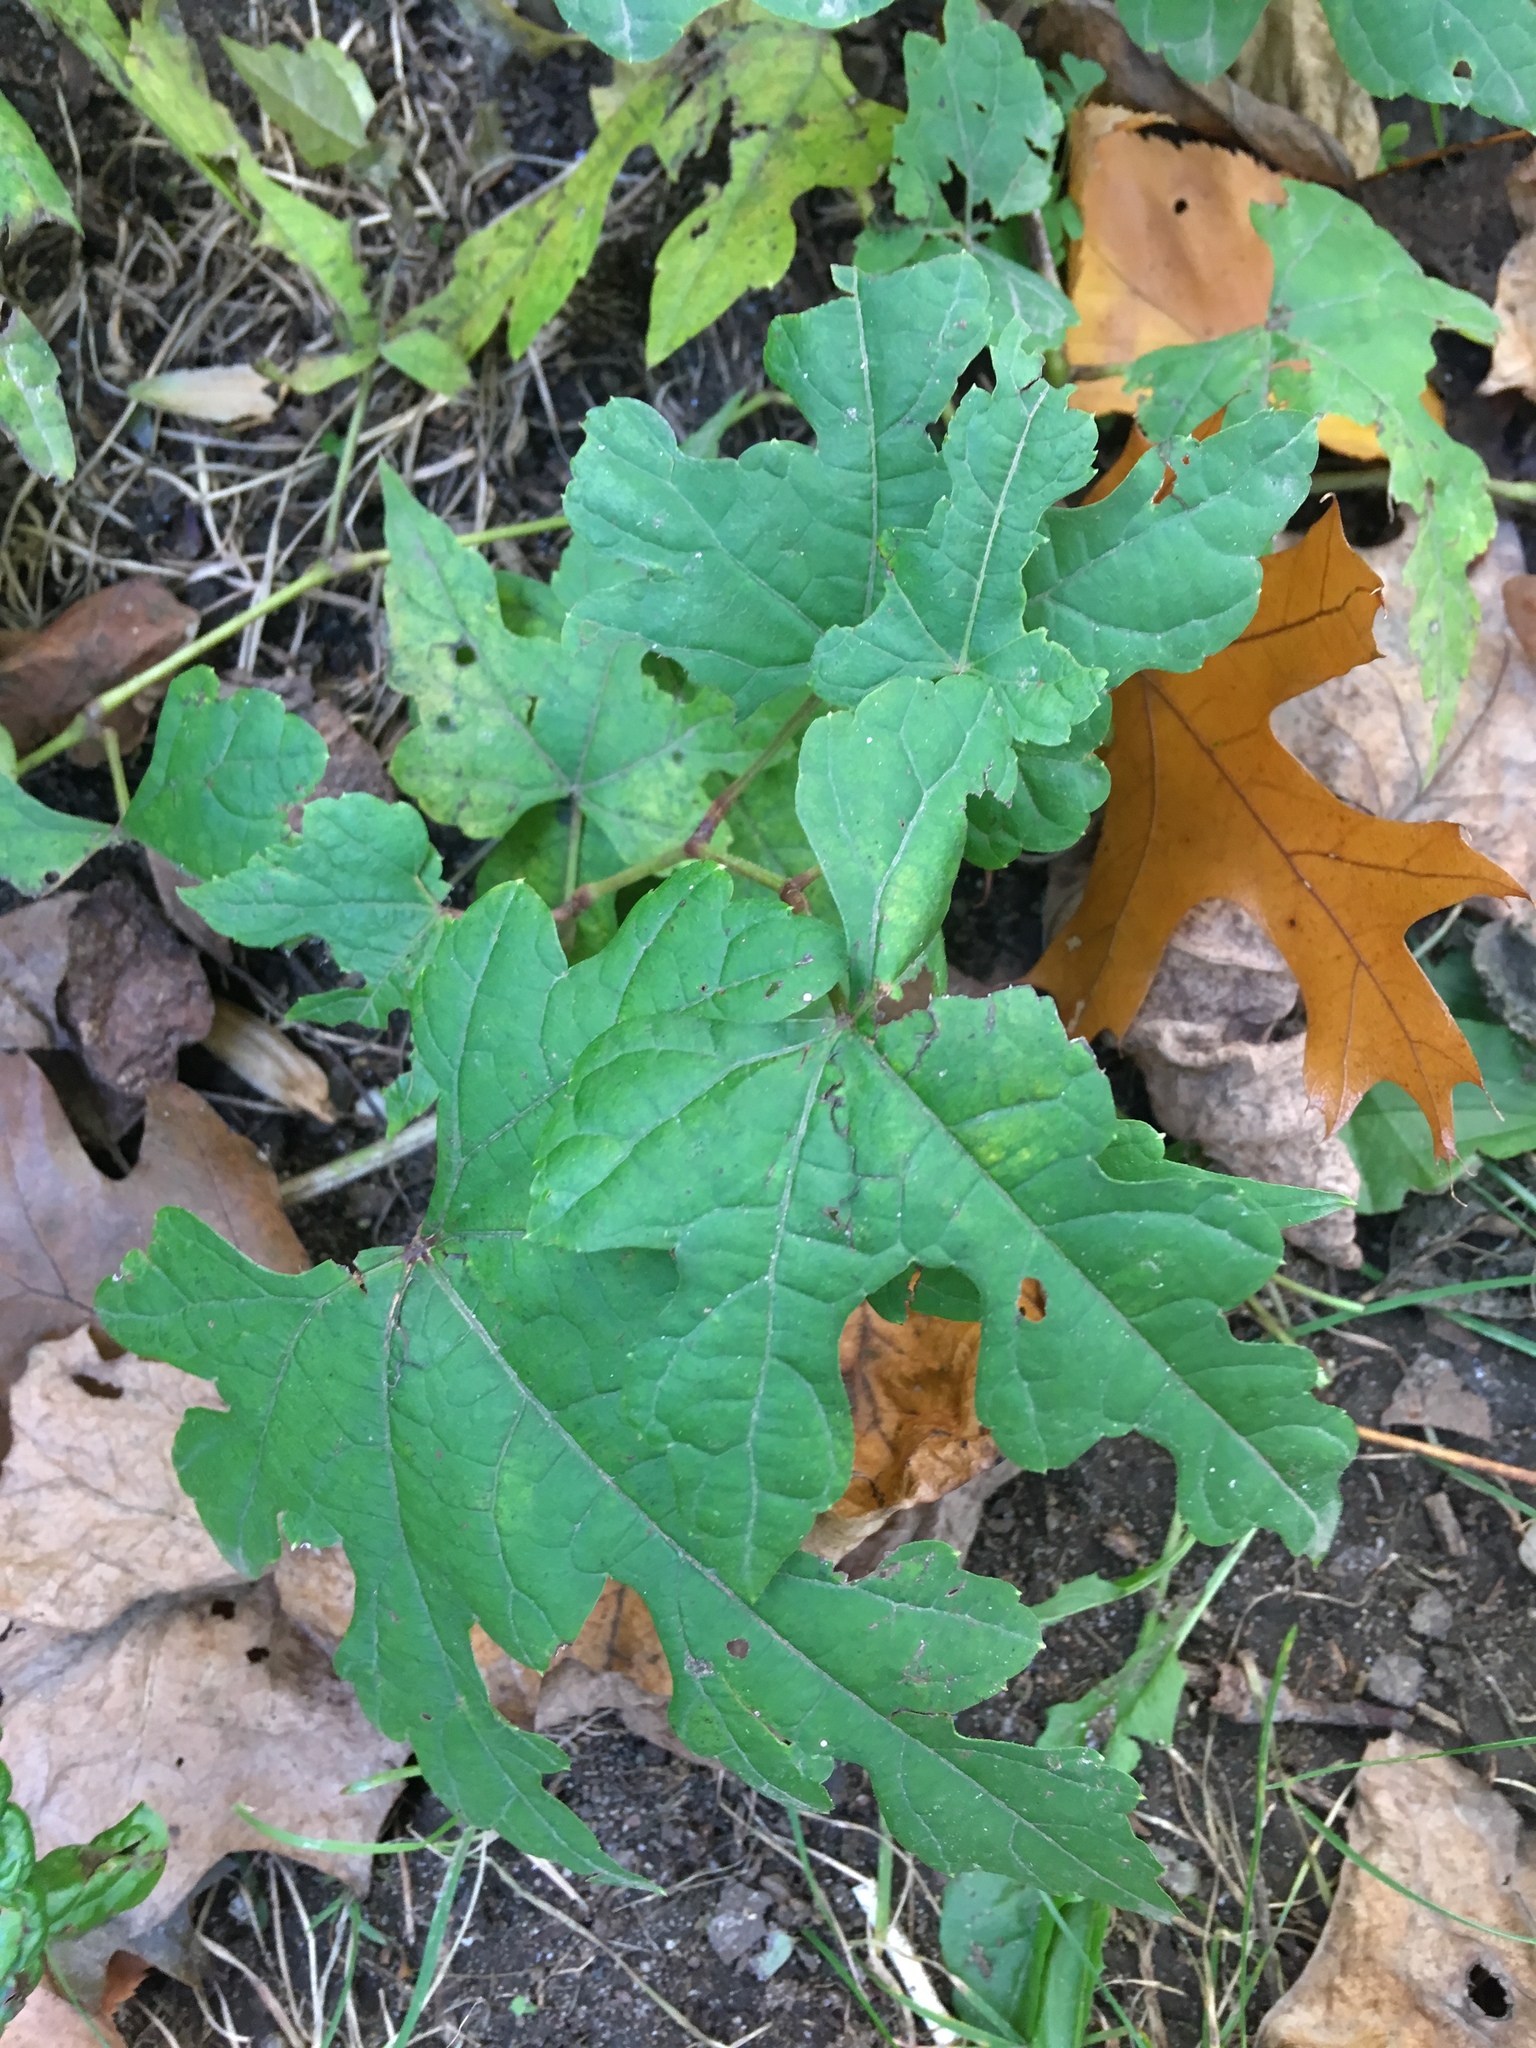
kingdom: Plantae
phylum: Tracheophyta
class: Magnoliopsida
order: Vitales
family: Vitaceae
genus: Ampelopsis
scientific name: Ampelopsis glandulosa
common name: Amur peppervine
